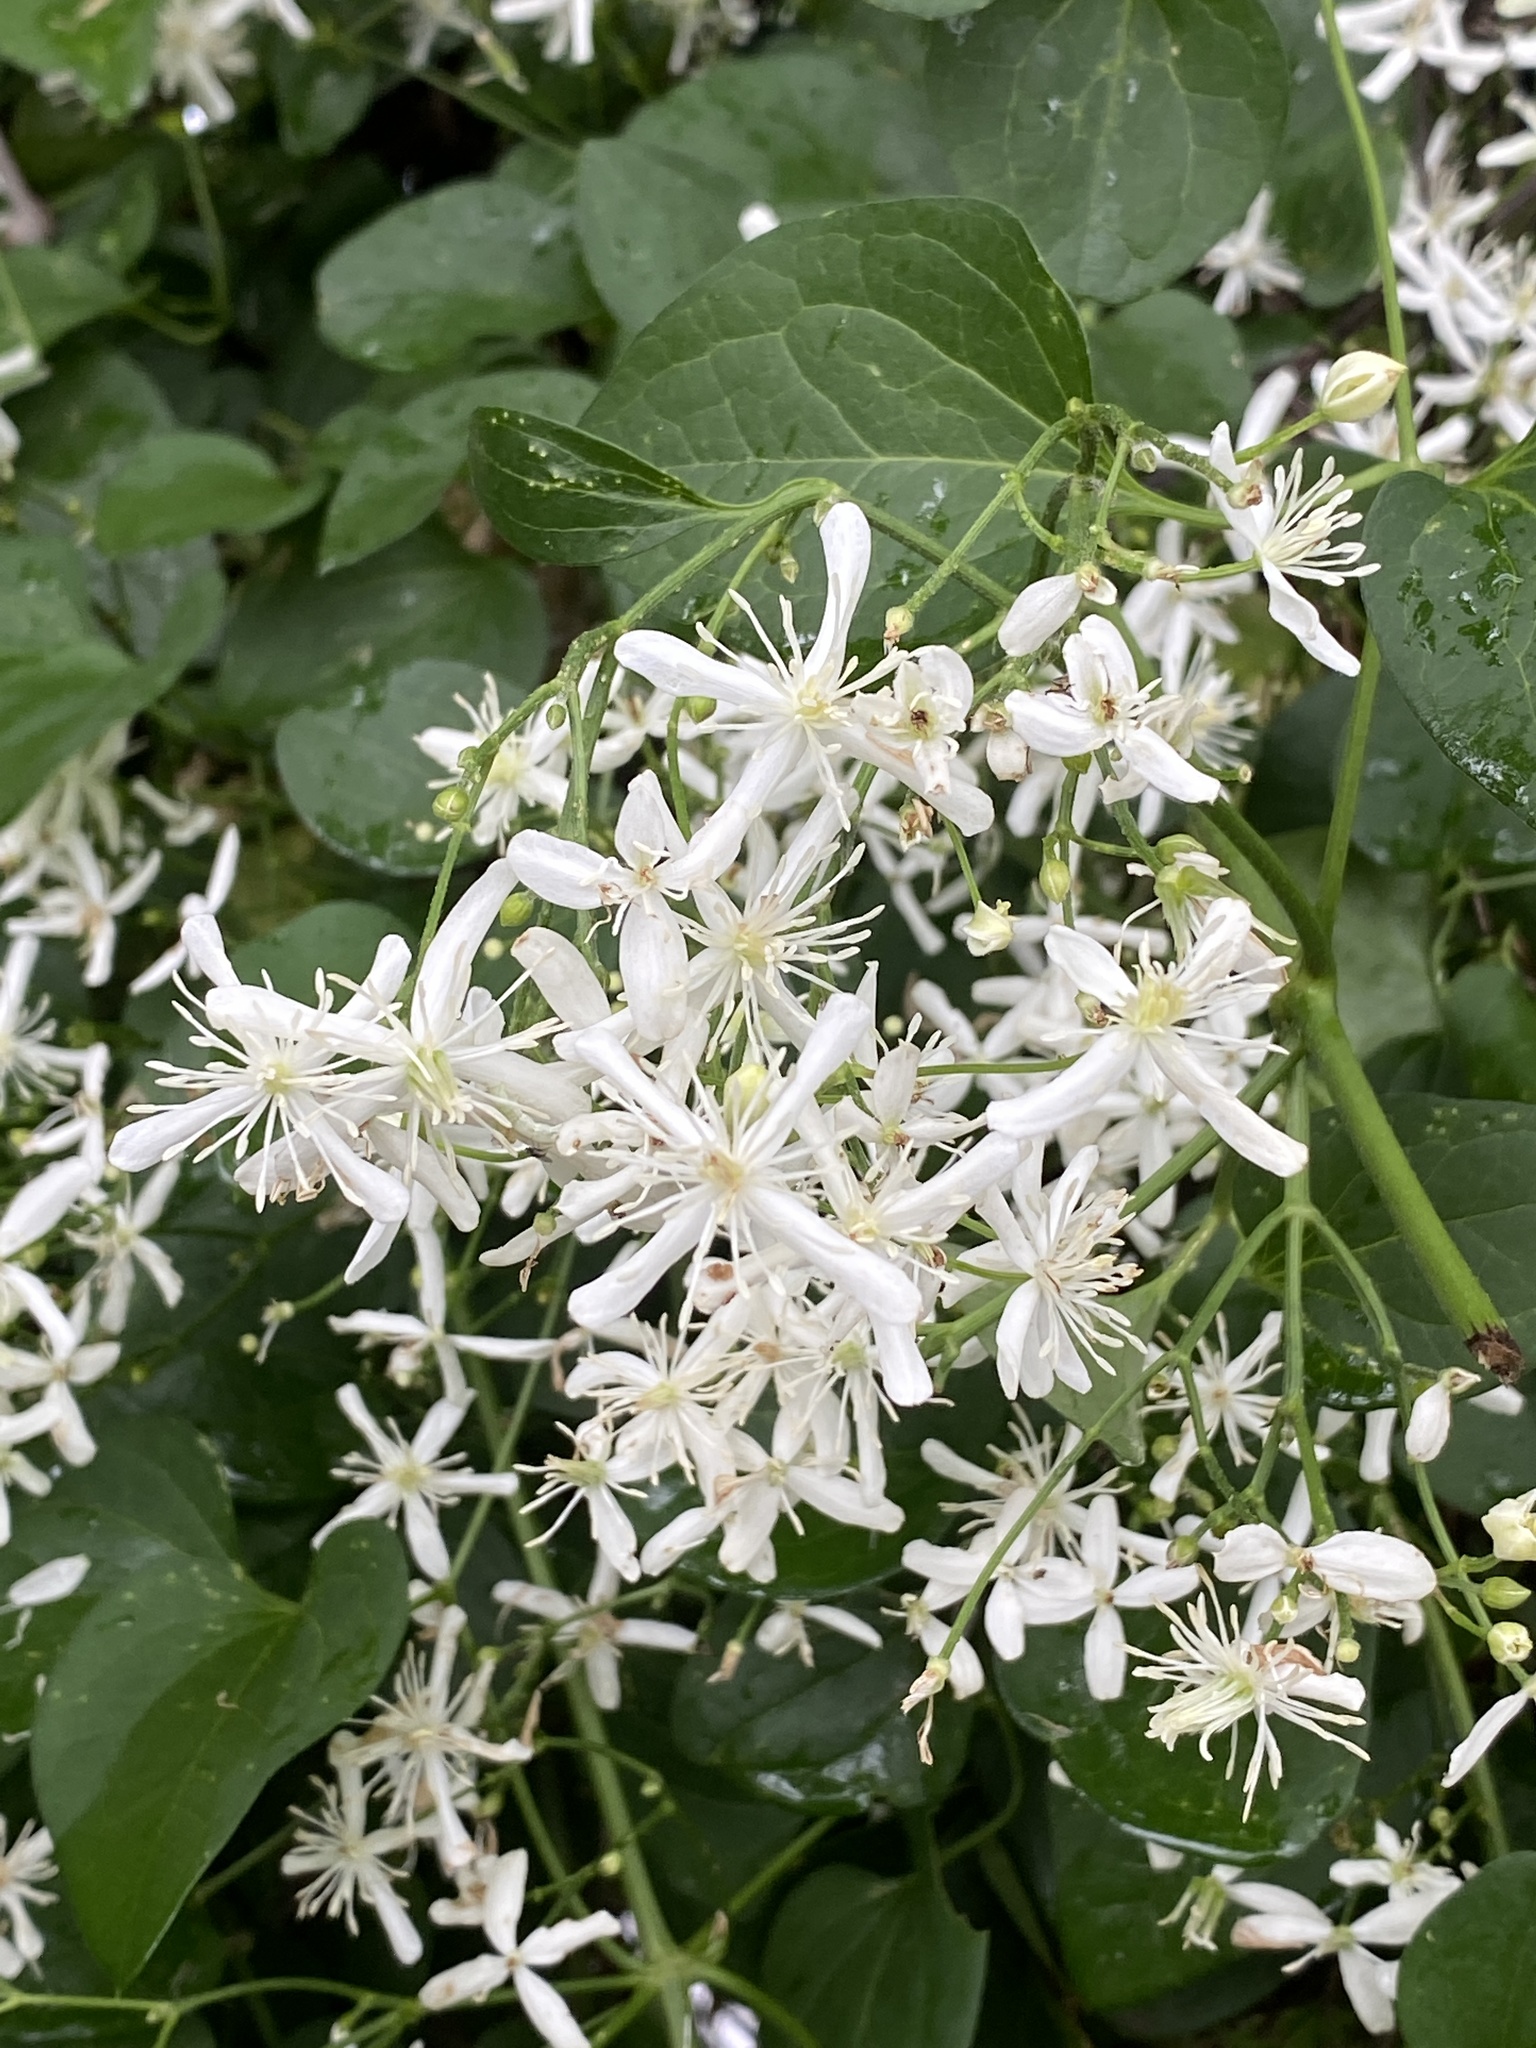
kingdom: Plantae
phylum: Tracheophyta
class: Magnoliopsida
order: Ranunculales
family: Ranunculaceae
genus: Clematis
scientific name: Clematis terniflora
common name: Sweet autumn clematis
